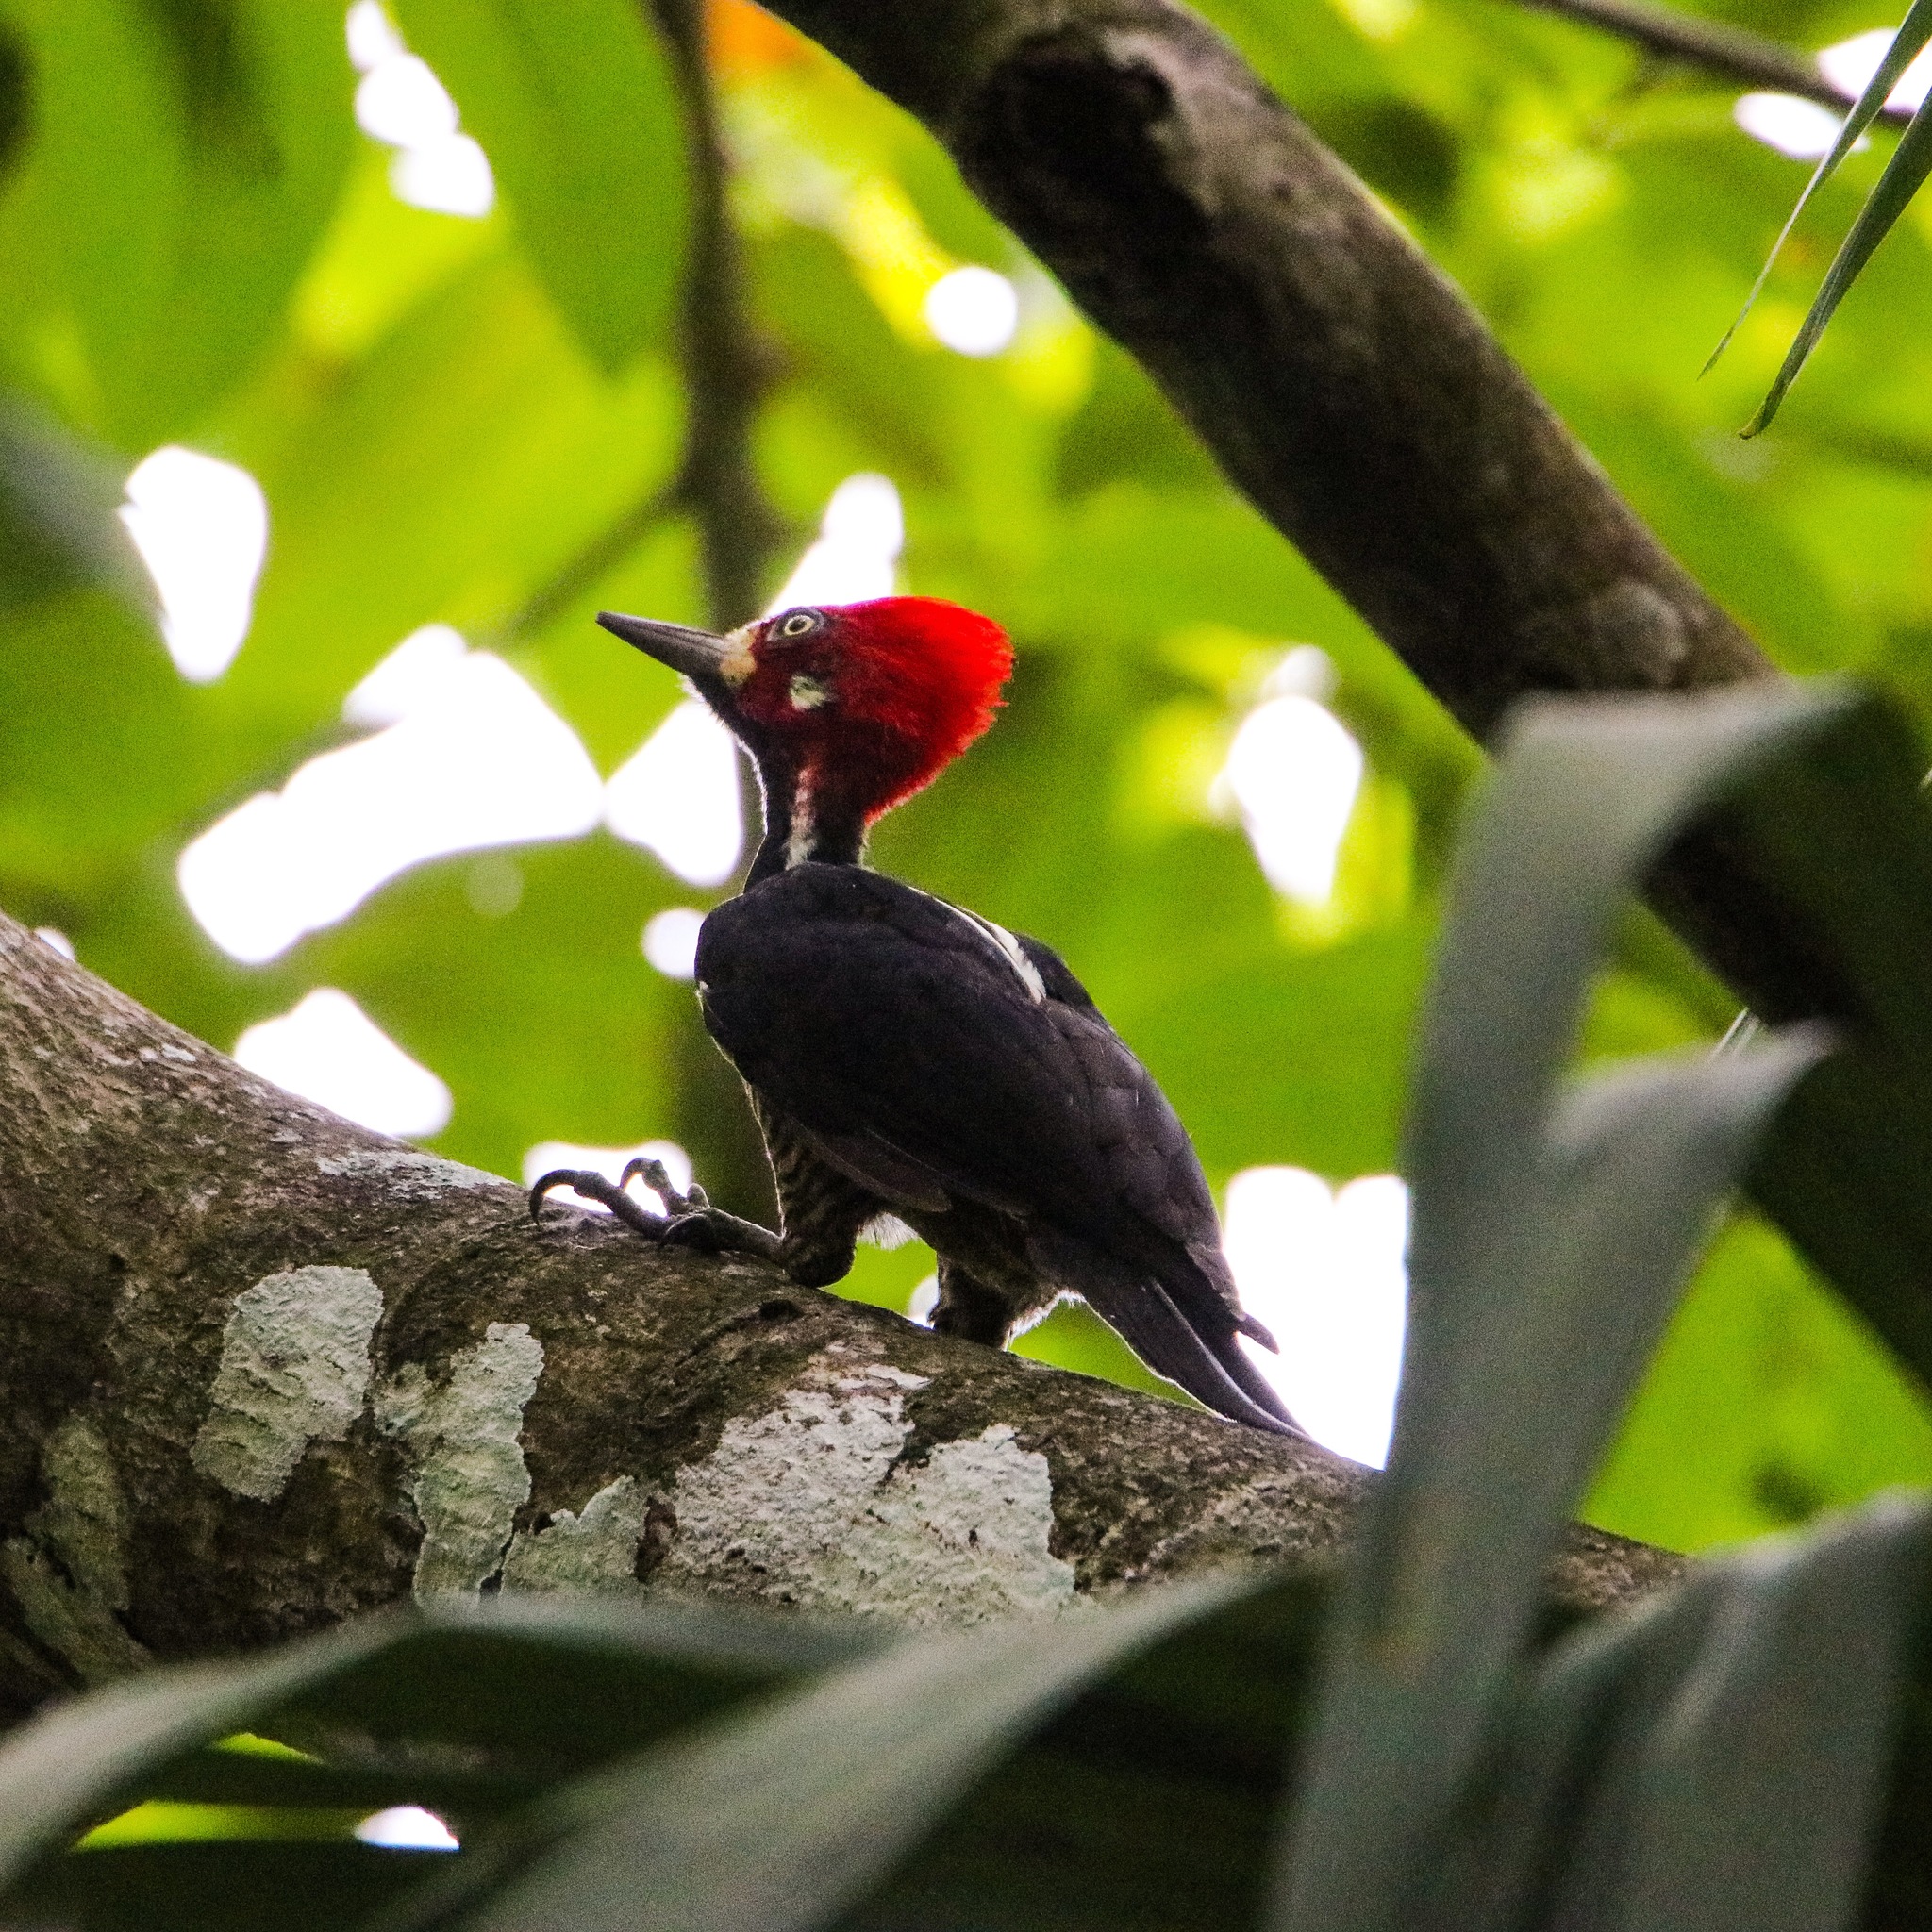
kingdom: Animalia
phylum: Chordata
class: Aves
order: Piciformes
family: Picidae
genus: Campephilus
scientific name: Campephilus melanoleucos
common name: Crimson-crested woodpecker
